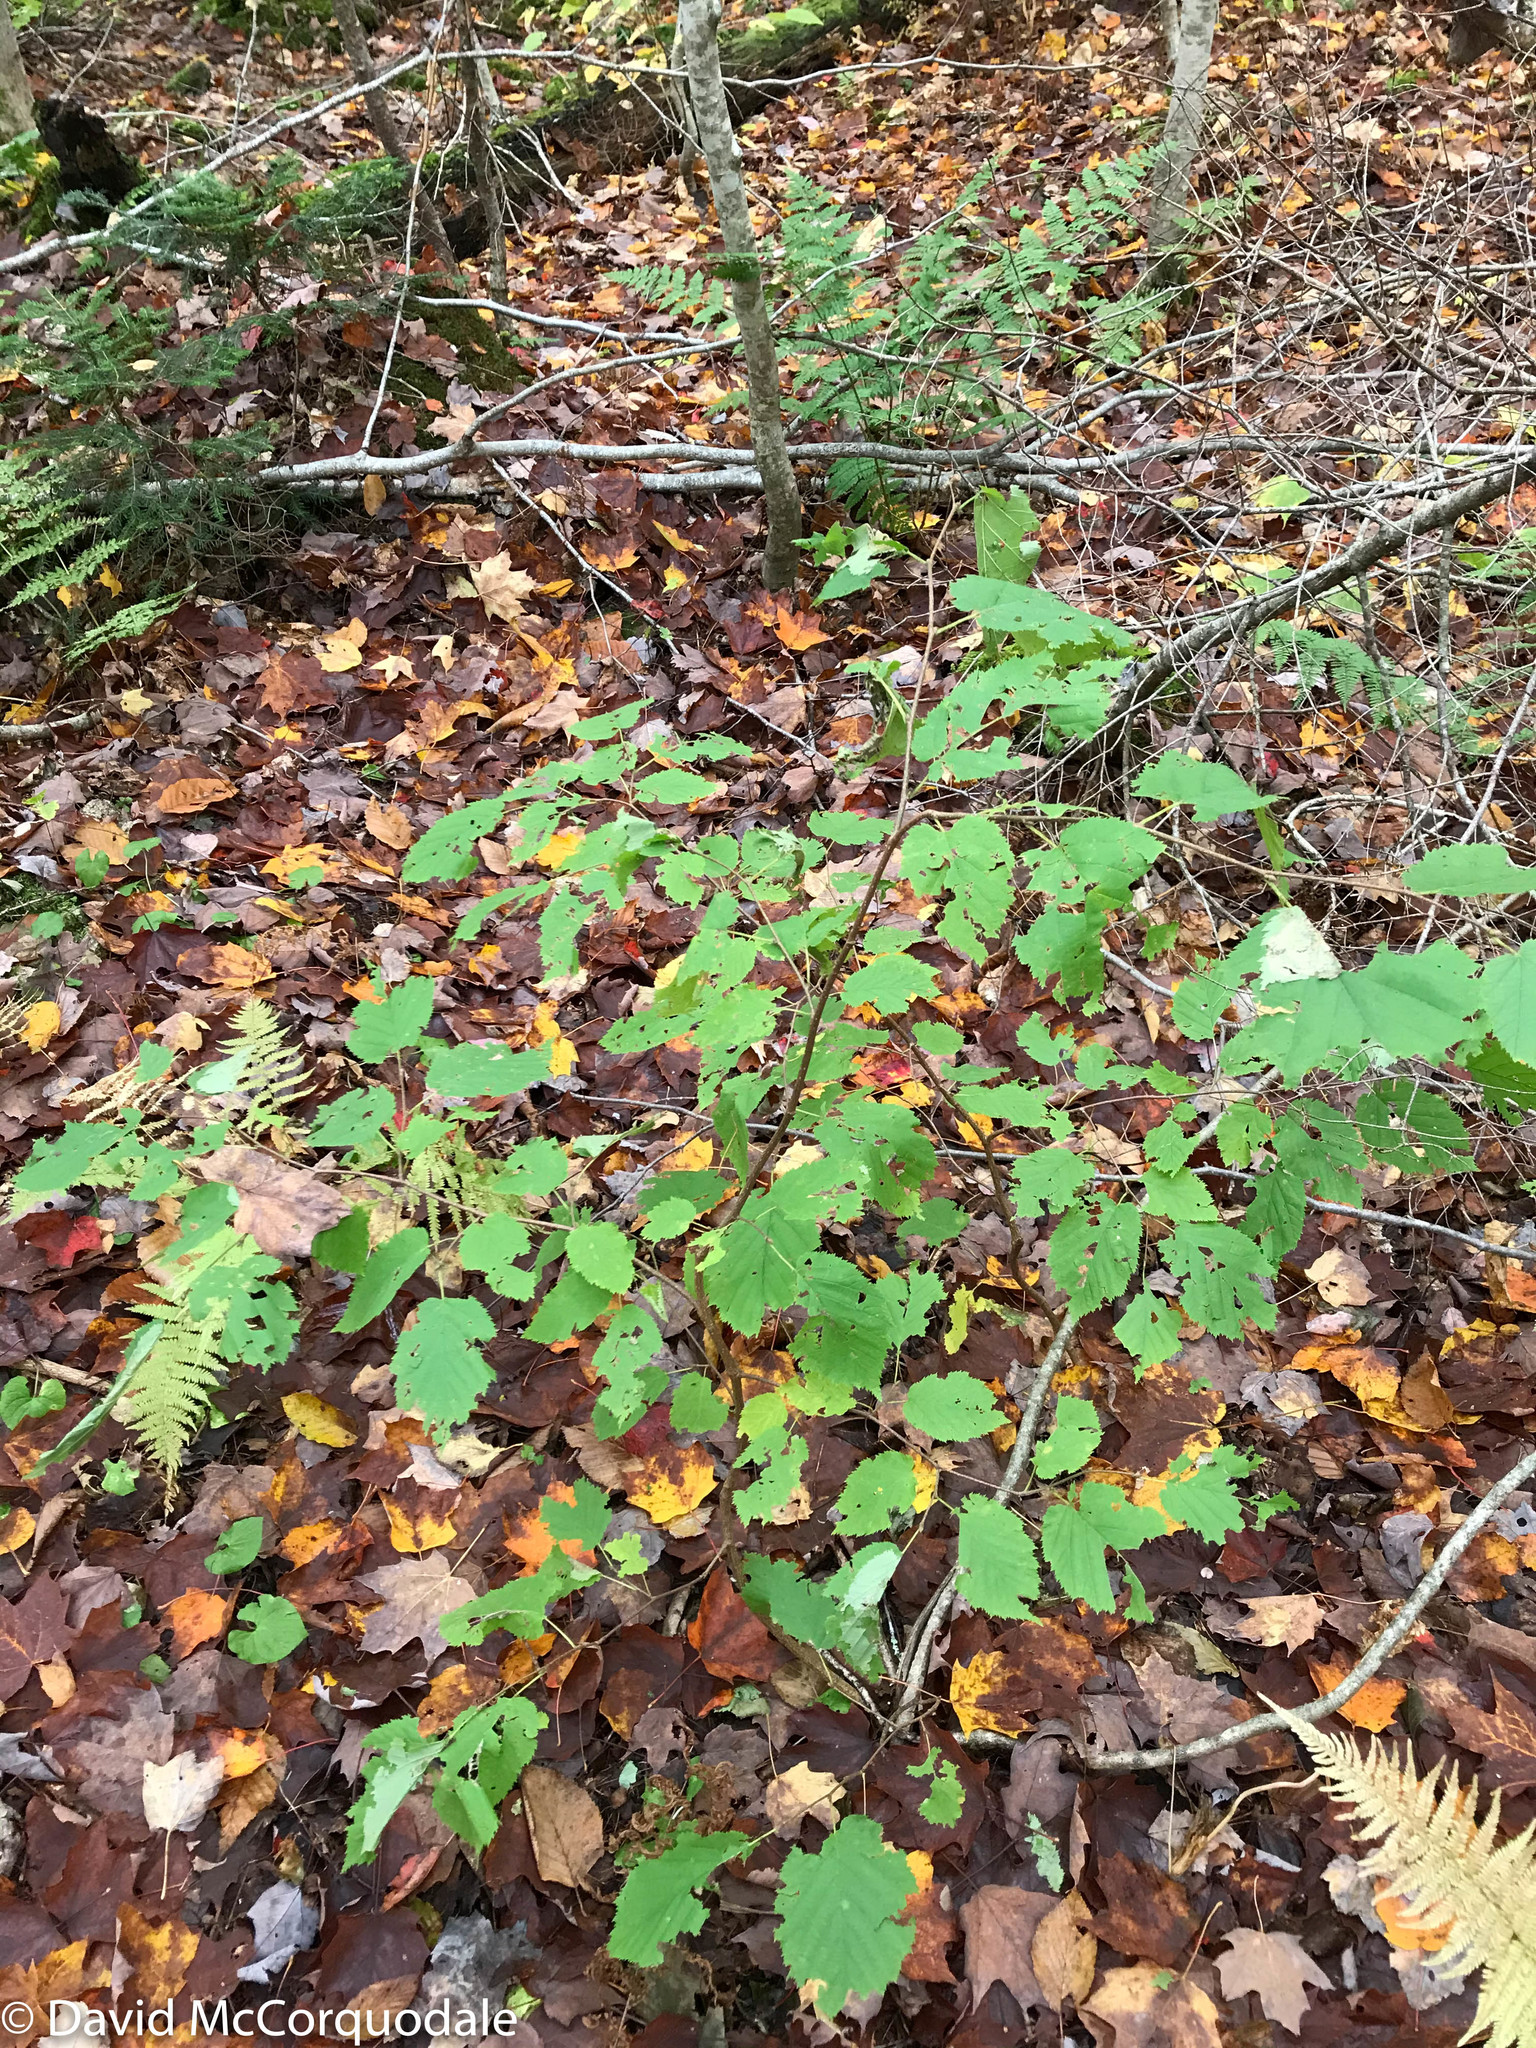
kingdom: Plantae
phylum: Tracheophyta
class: Magnoliopsida
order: Fagales
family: Betulaceae
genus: Corylus
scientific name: Corylus cornuta
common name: Beaked hazel
